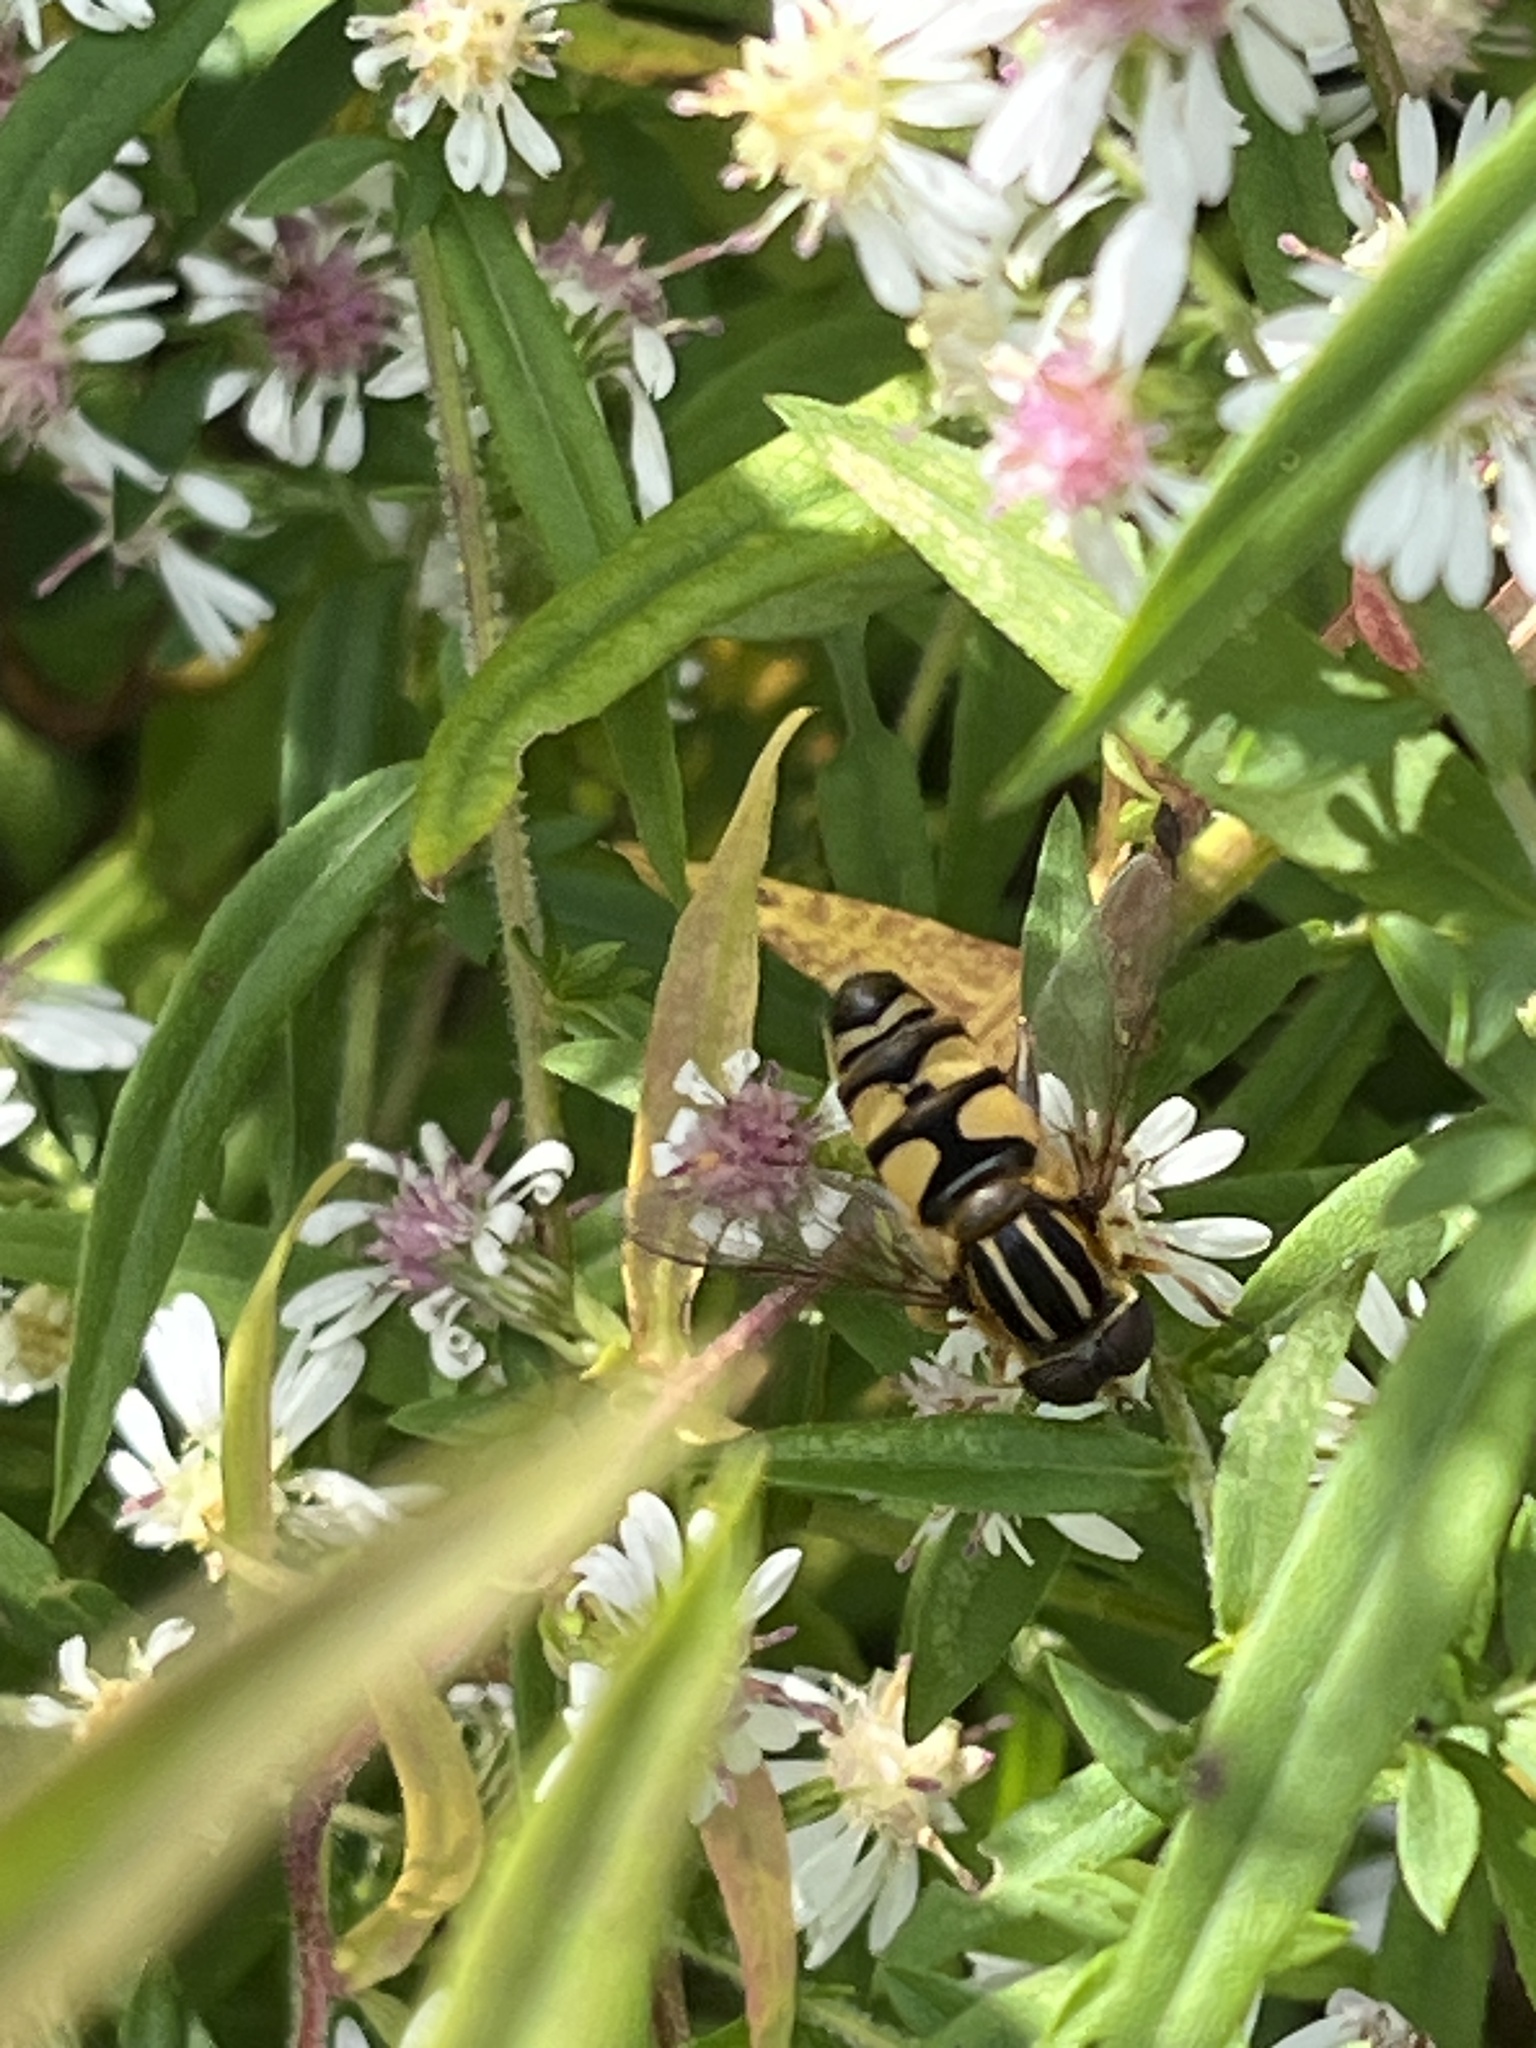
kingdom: Animalia
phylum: Arthropoda
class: Insecta
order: Diptera
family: Syrphidae
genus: Helophilus
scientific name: Helophilus fasciatus
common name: Narrow-headed marsh fly
